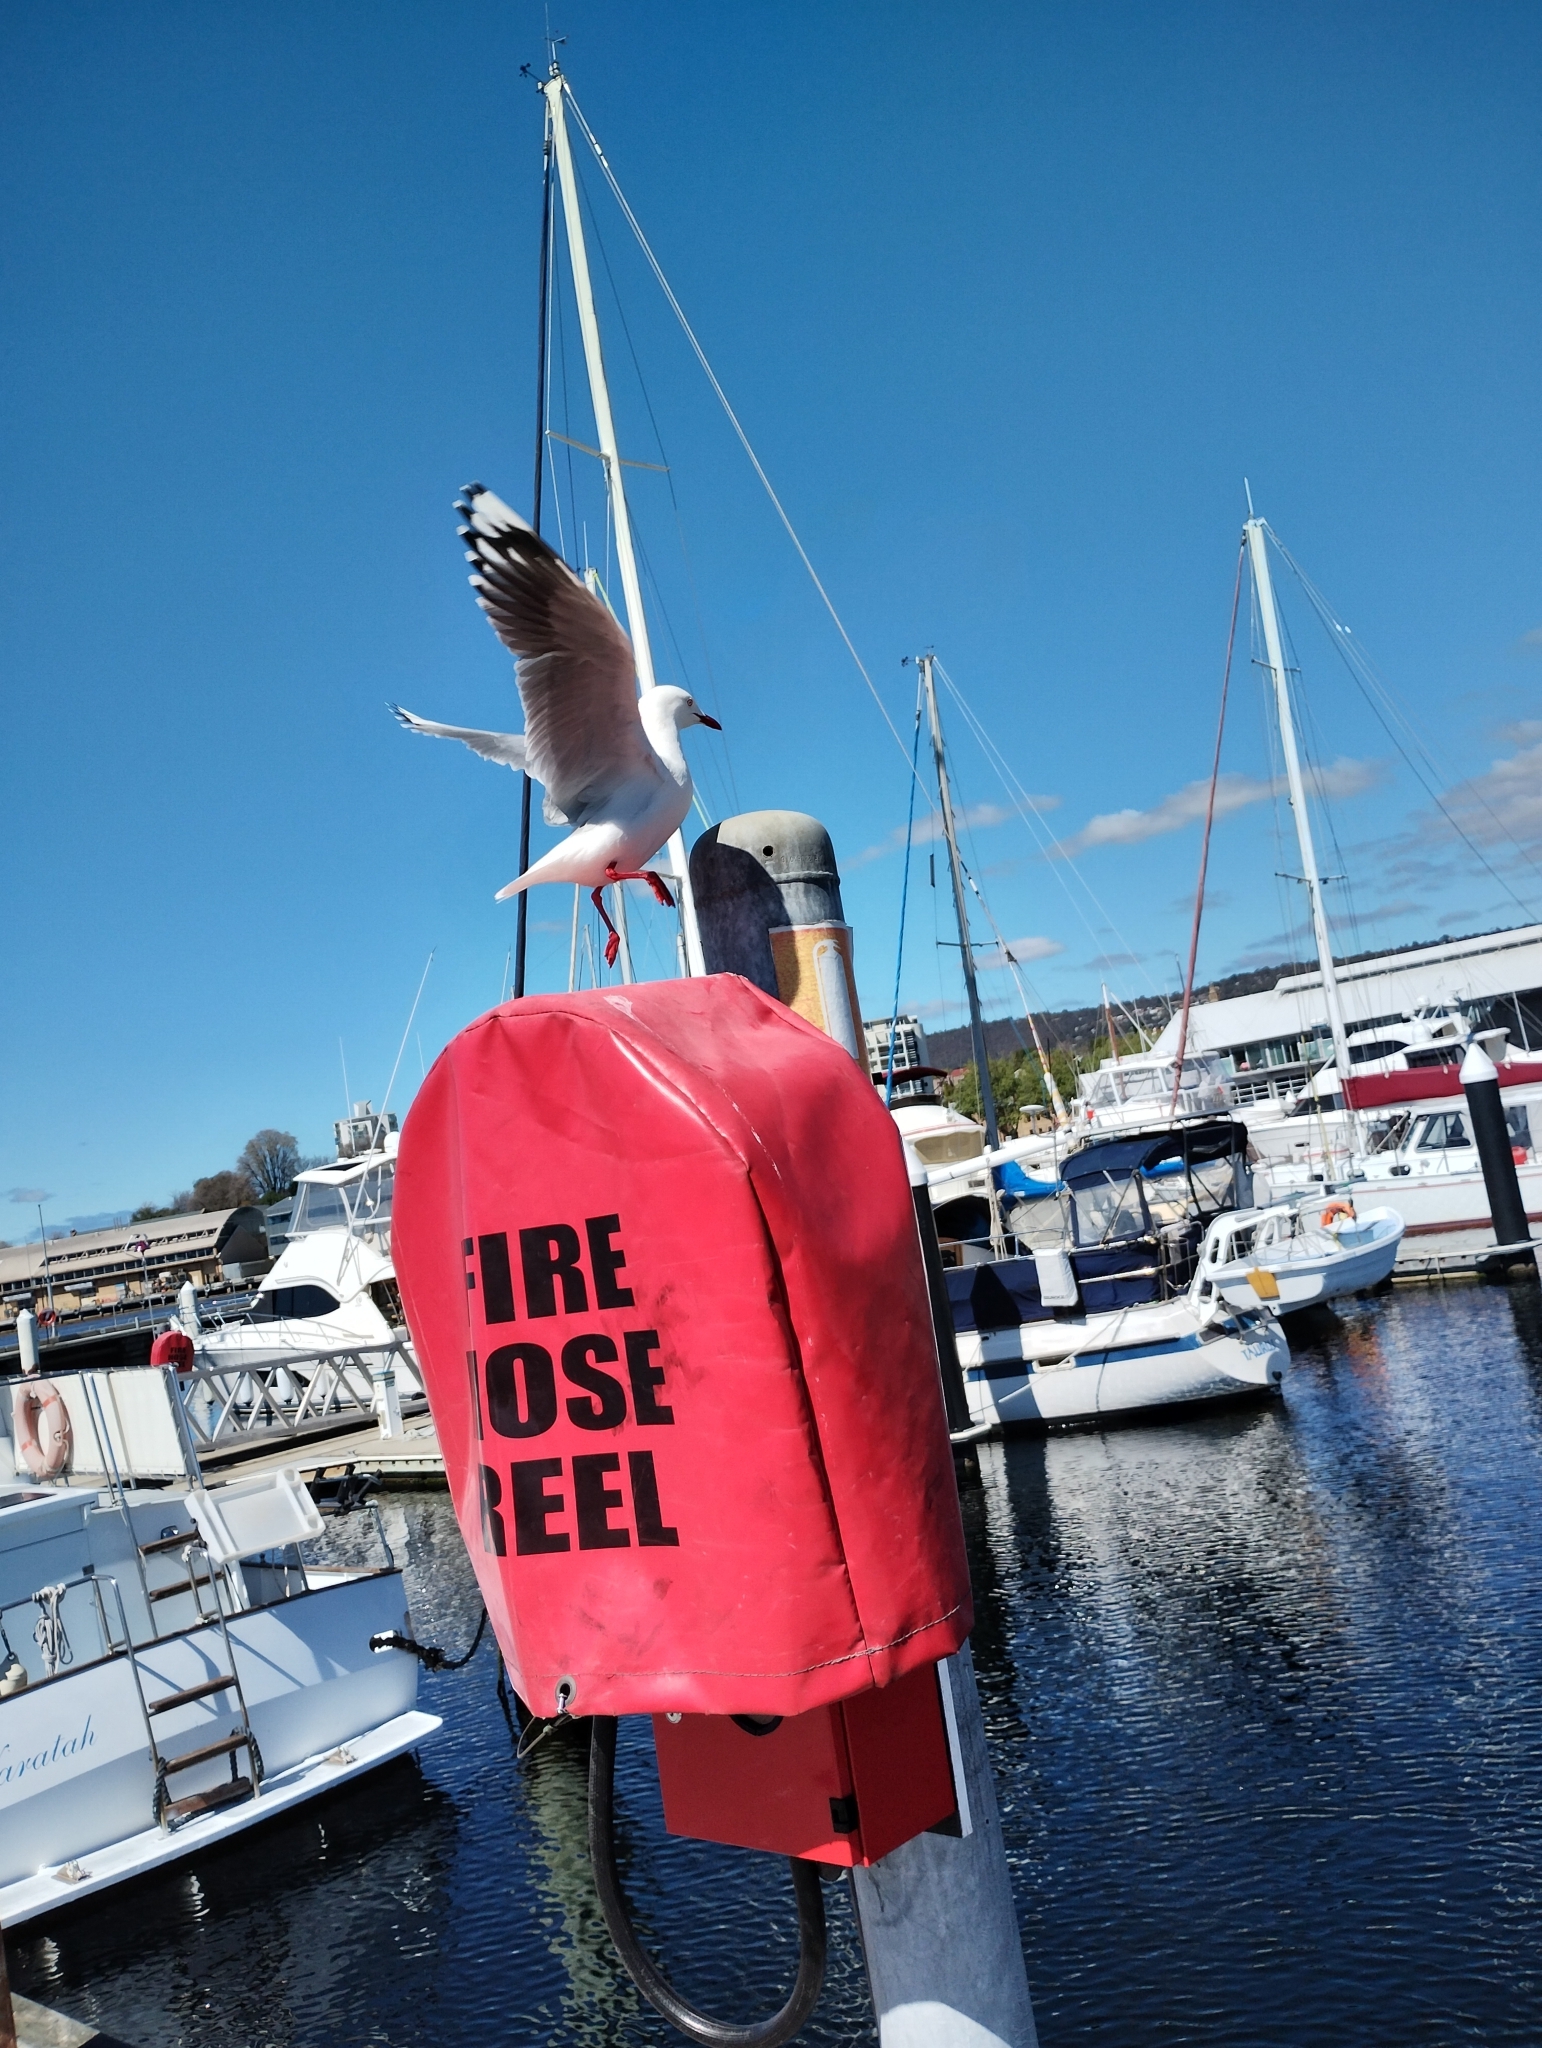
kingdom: Animalia
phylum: Chordata
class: Aves
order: Charadriiformes
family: Laridae
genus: Chroicocephalus
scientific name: Chroicocephalus novaehollandiae
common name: Silver gull
